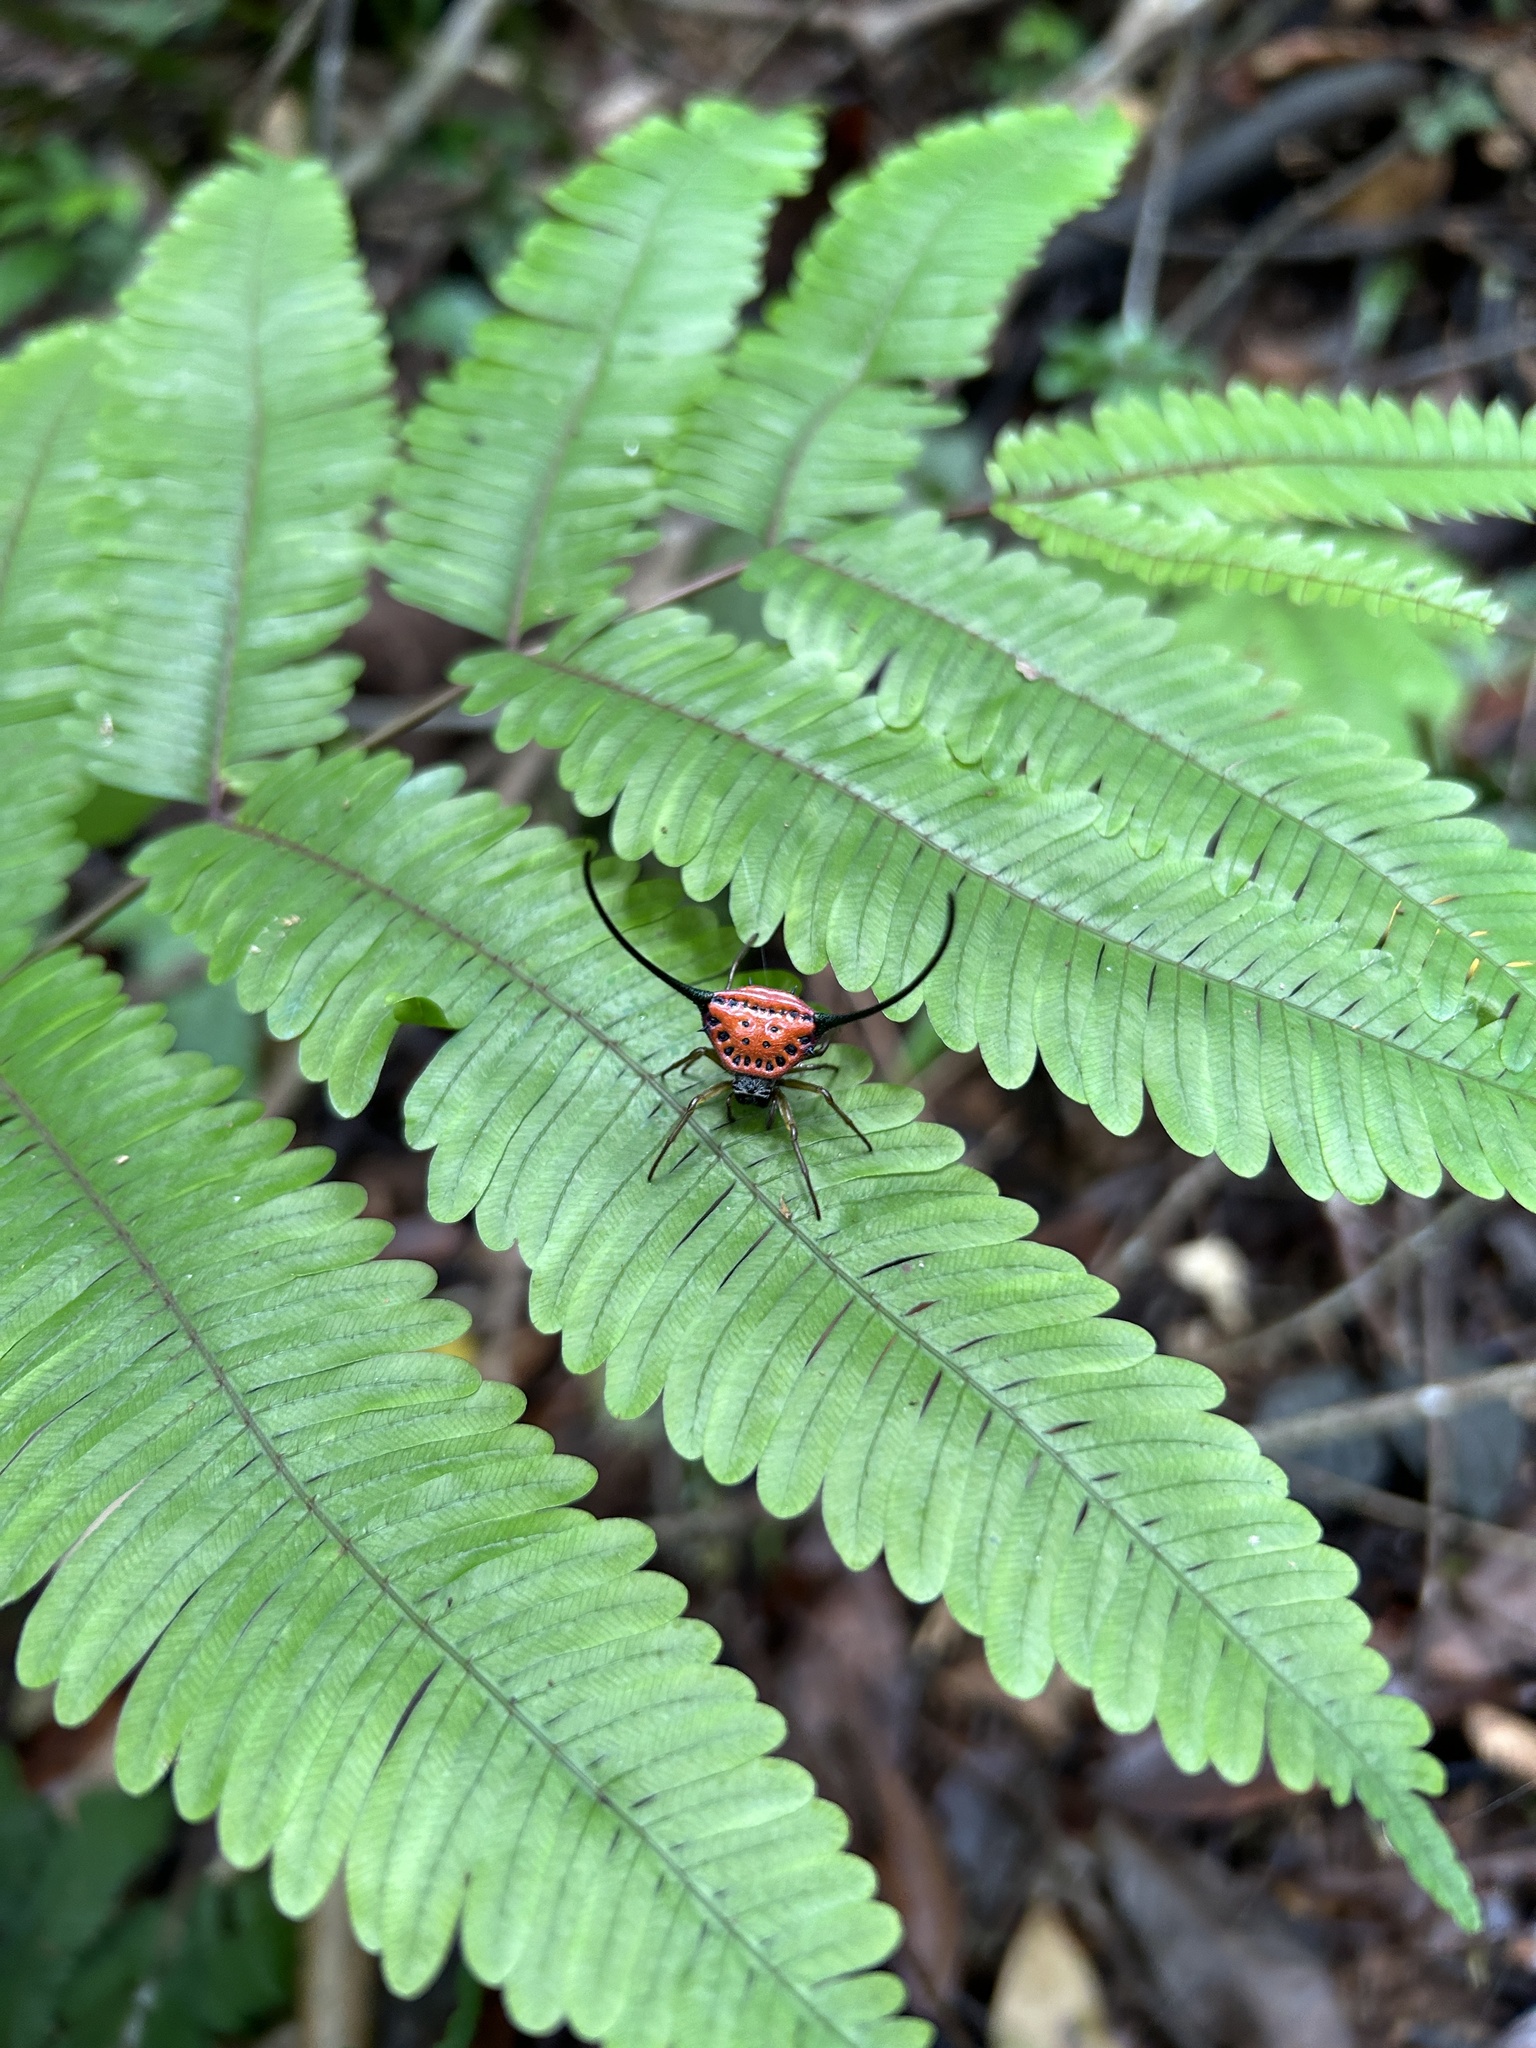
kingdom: Animalia
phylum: Arthropoda
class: Arachnida
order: Araneae
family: Araneidae
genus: Macracantha
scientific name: Macracantha arcuata
